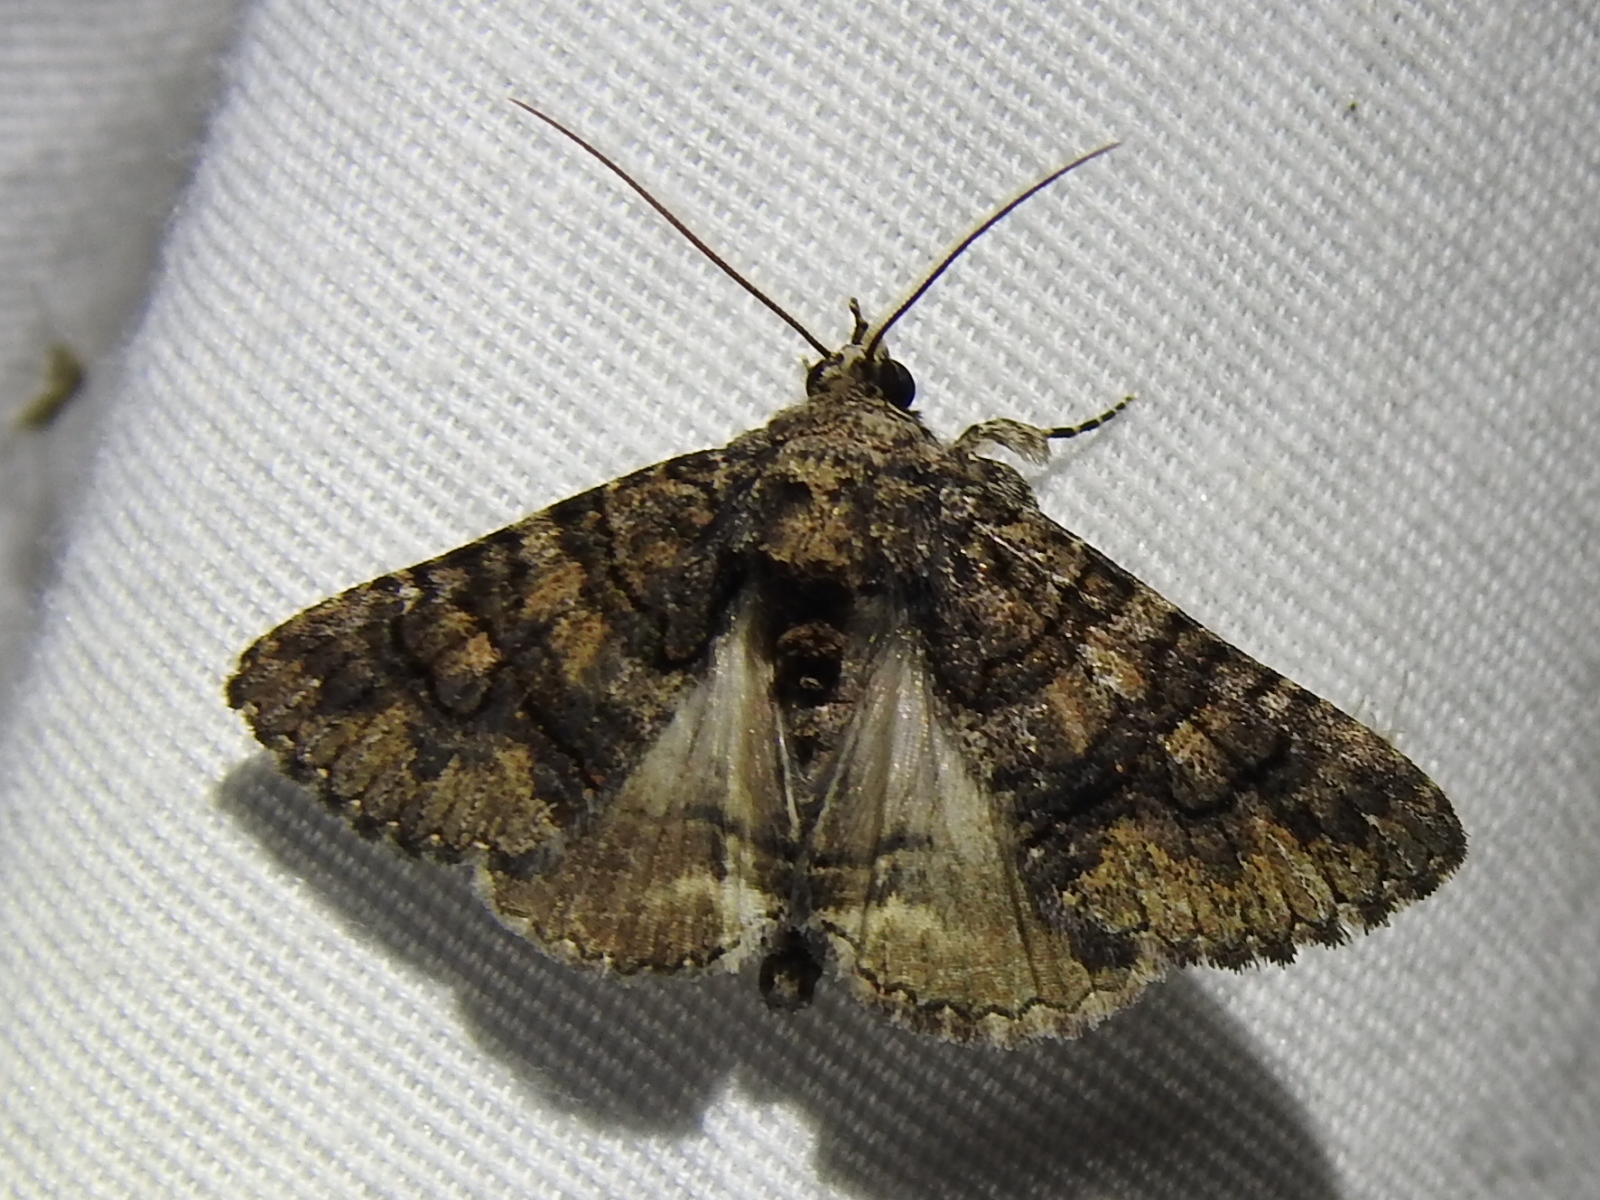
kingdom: Animalia
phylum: Arthropoda
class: Insecta
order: Lepidoptera
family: Erebidae
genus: Elousa
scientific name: Elousa mima
